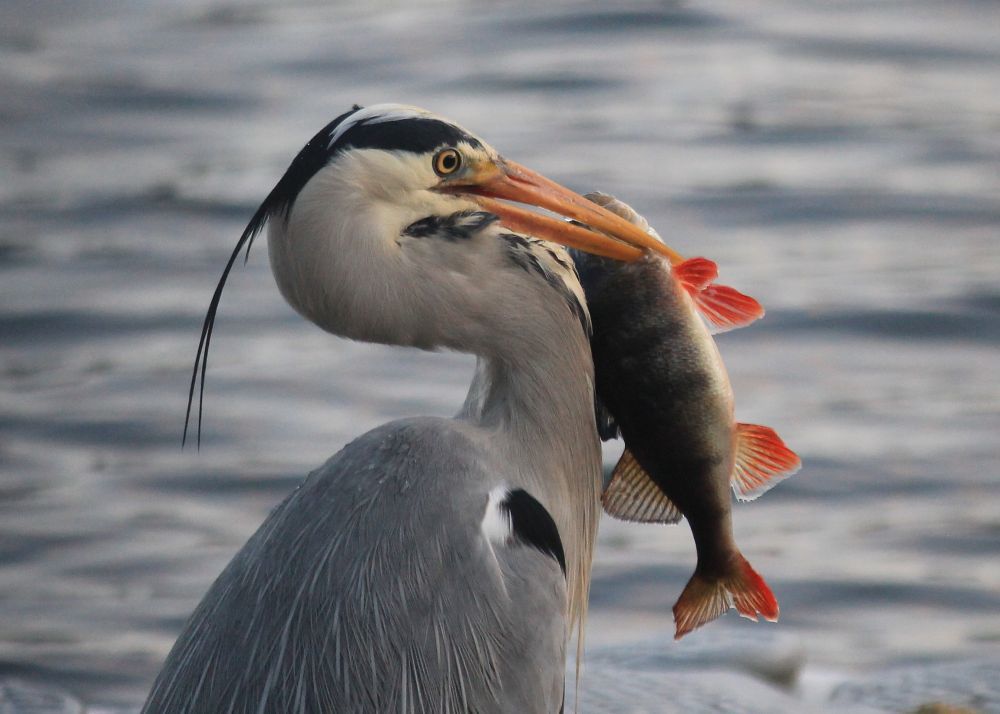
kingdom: Animalia
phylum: Chordata
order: Perciformes
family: Percidae
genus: Perca
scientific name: Perca fluviatilis
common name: Perch
